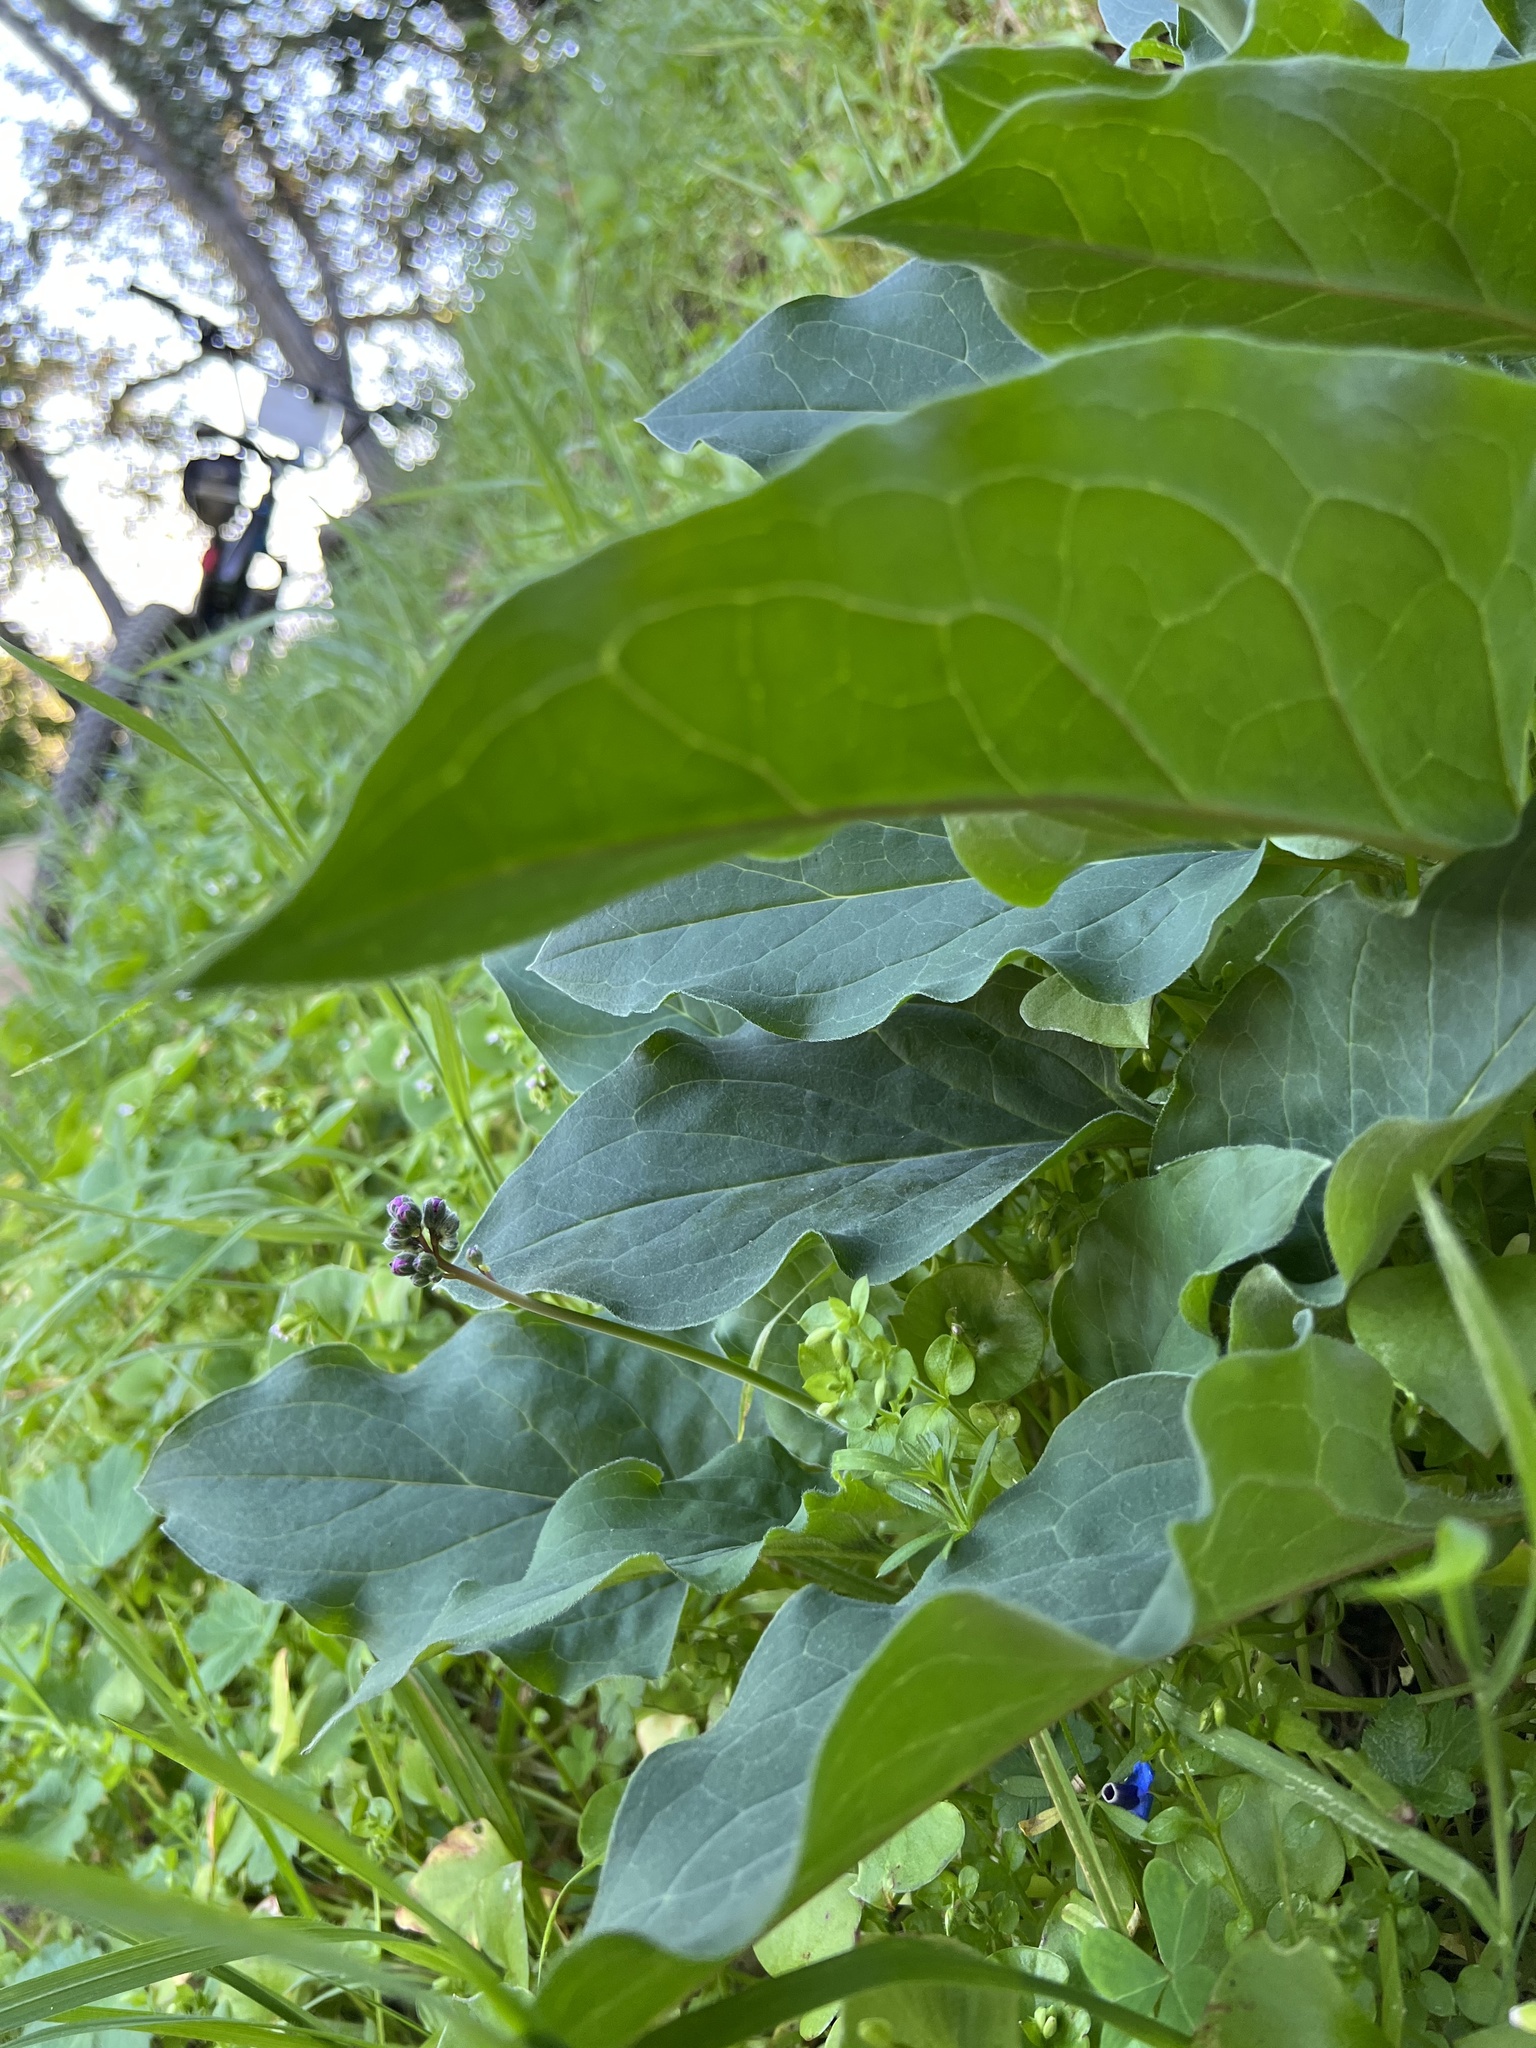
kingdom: Plantae
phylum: Tracheophyta
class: Magnoliopsida
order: Boraginales
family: Boraginaceae
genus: Adelinia
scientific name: Adelinia grande
